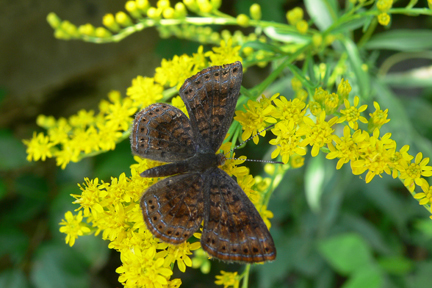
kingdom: Animalia
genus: Calephelis
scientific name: Calephelis borealis
